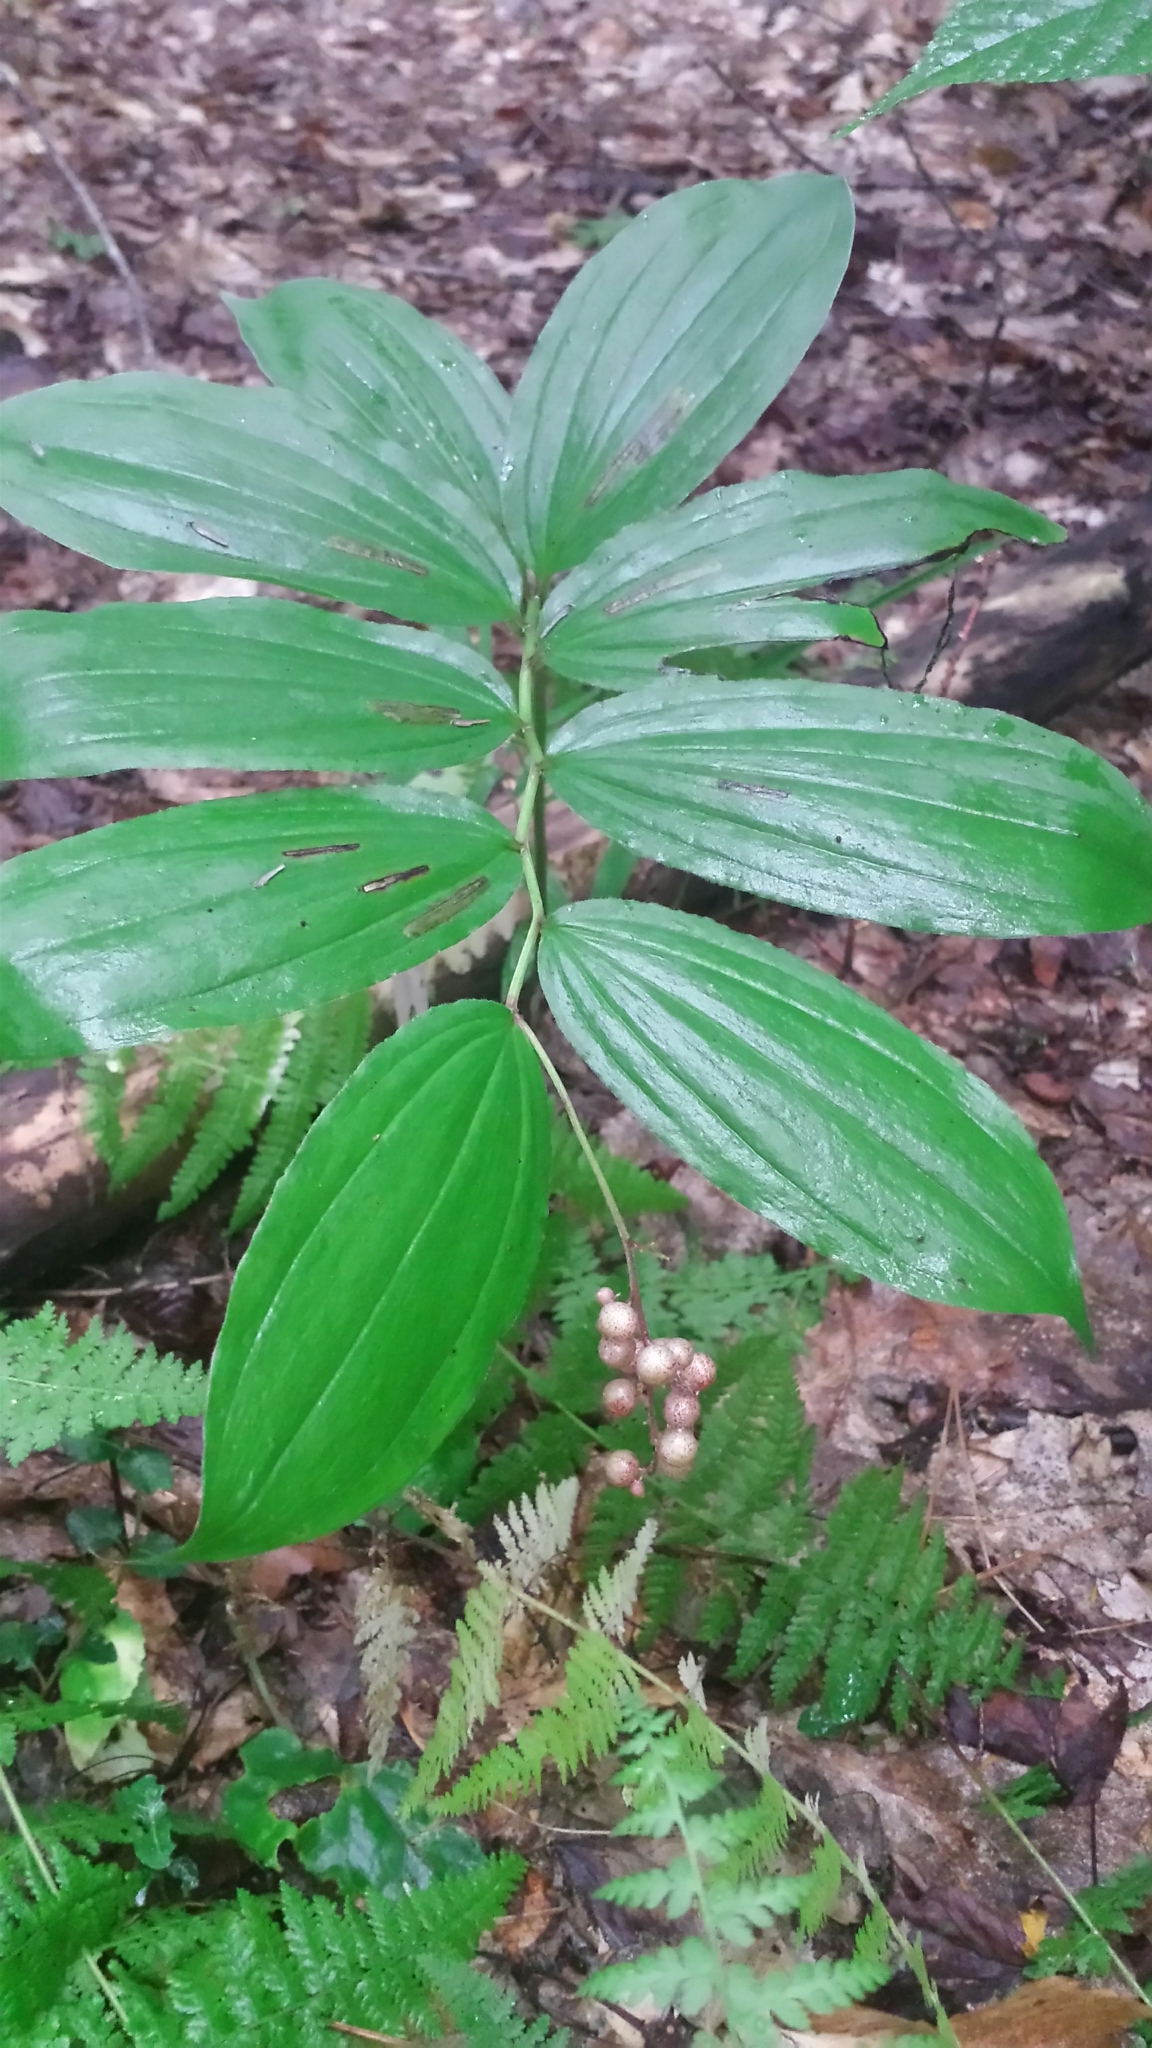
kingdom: Plantae
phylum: Tracheophyta
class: Liliopsida
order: Asparagales
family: Asparagaceae
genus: Maianthemum
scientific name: Maianthemum racemosum
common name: False spikenard
